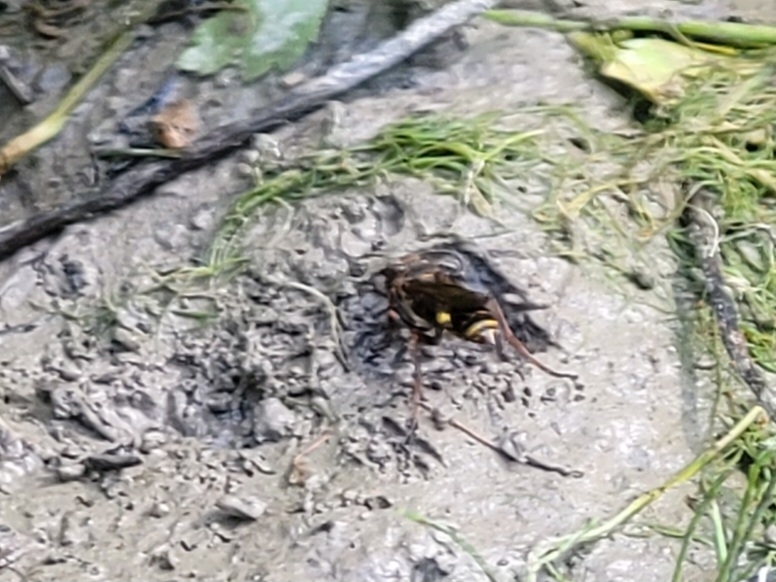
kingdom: Animalia
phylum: Arthropoda
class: Insecta
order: Hymenoptera
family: Sphecidae
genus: Sceliphron
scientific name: Sceliphron curvatum
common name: Pèlopèe
